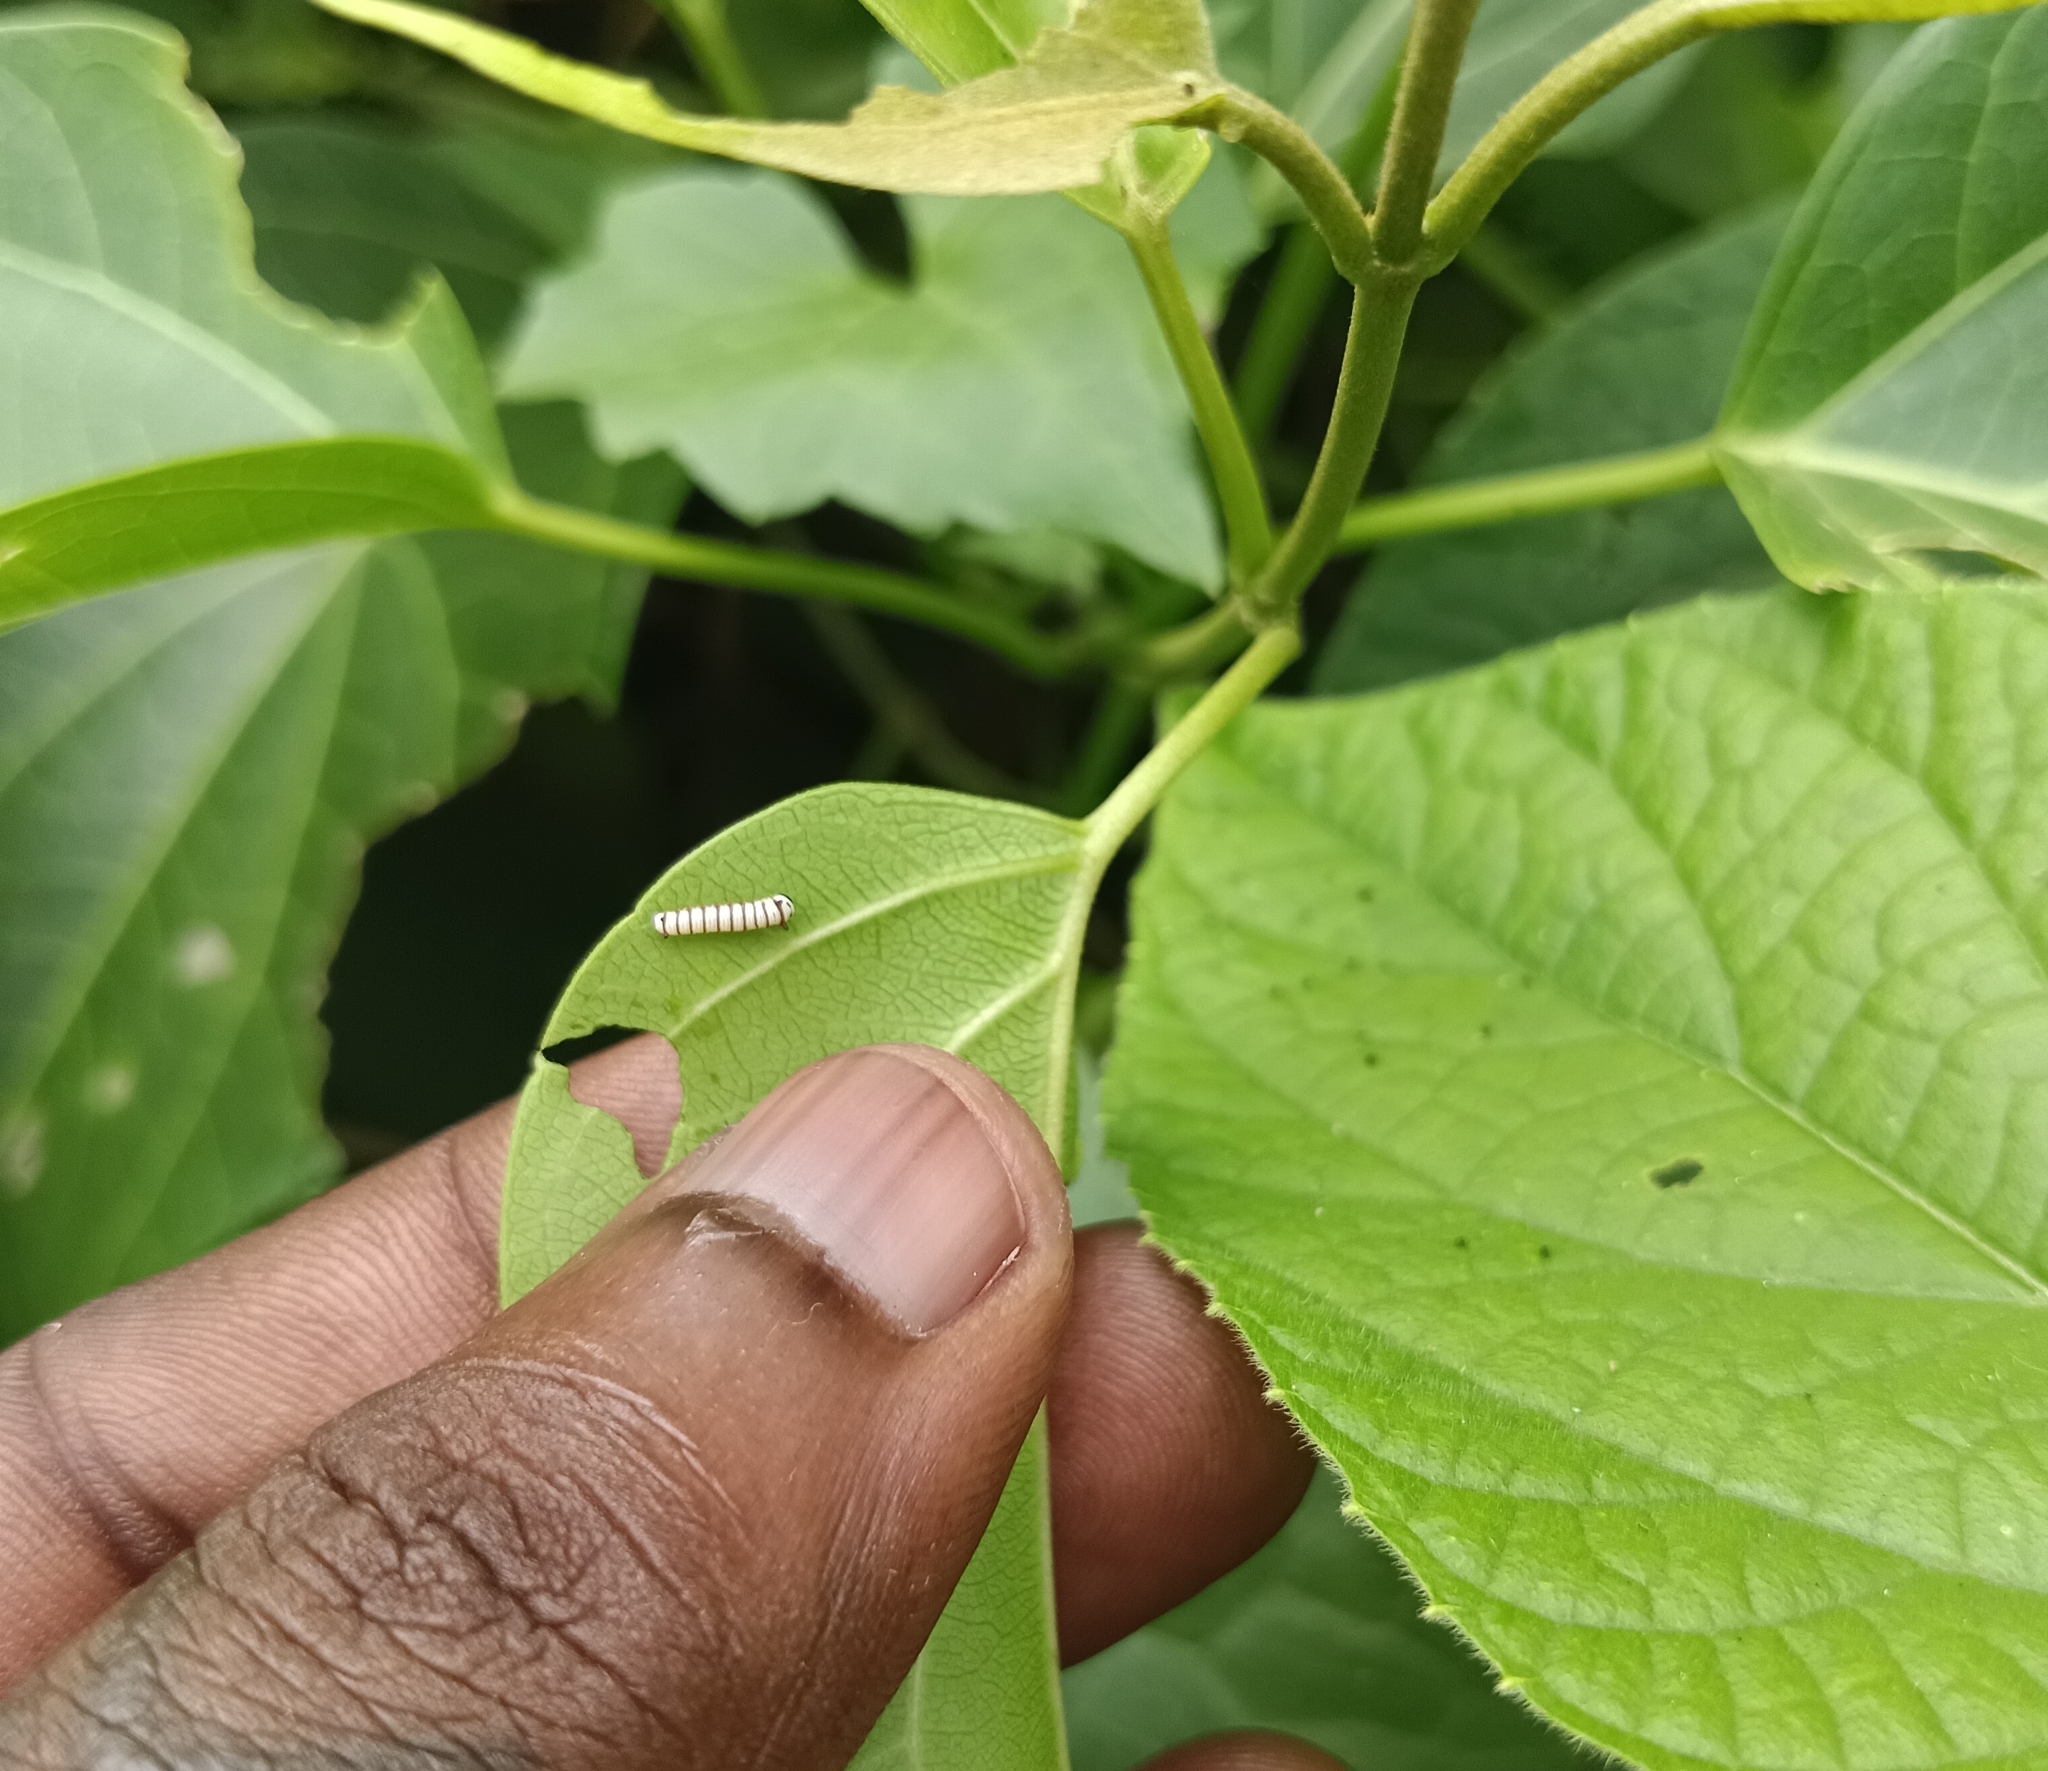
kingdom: Animalia
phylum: Arthropoda
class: Insecta
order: Lepidoptera
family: Nymphalidae
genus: Tirumala
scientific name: Tirumala limniace
